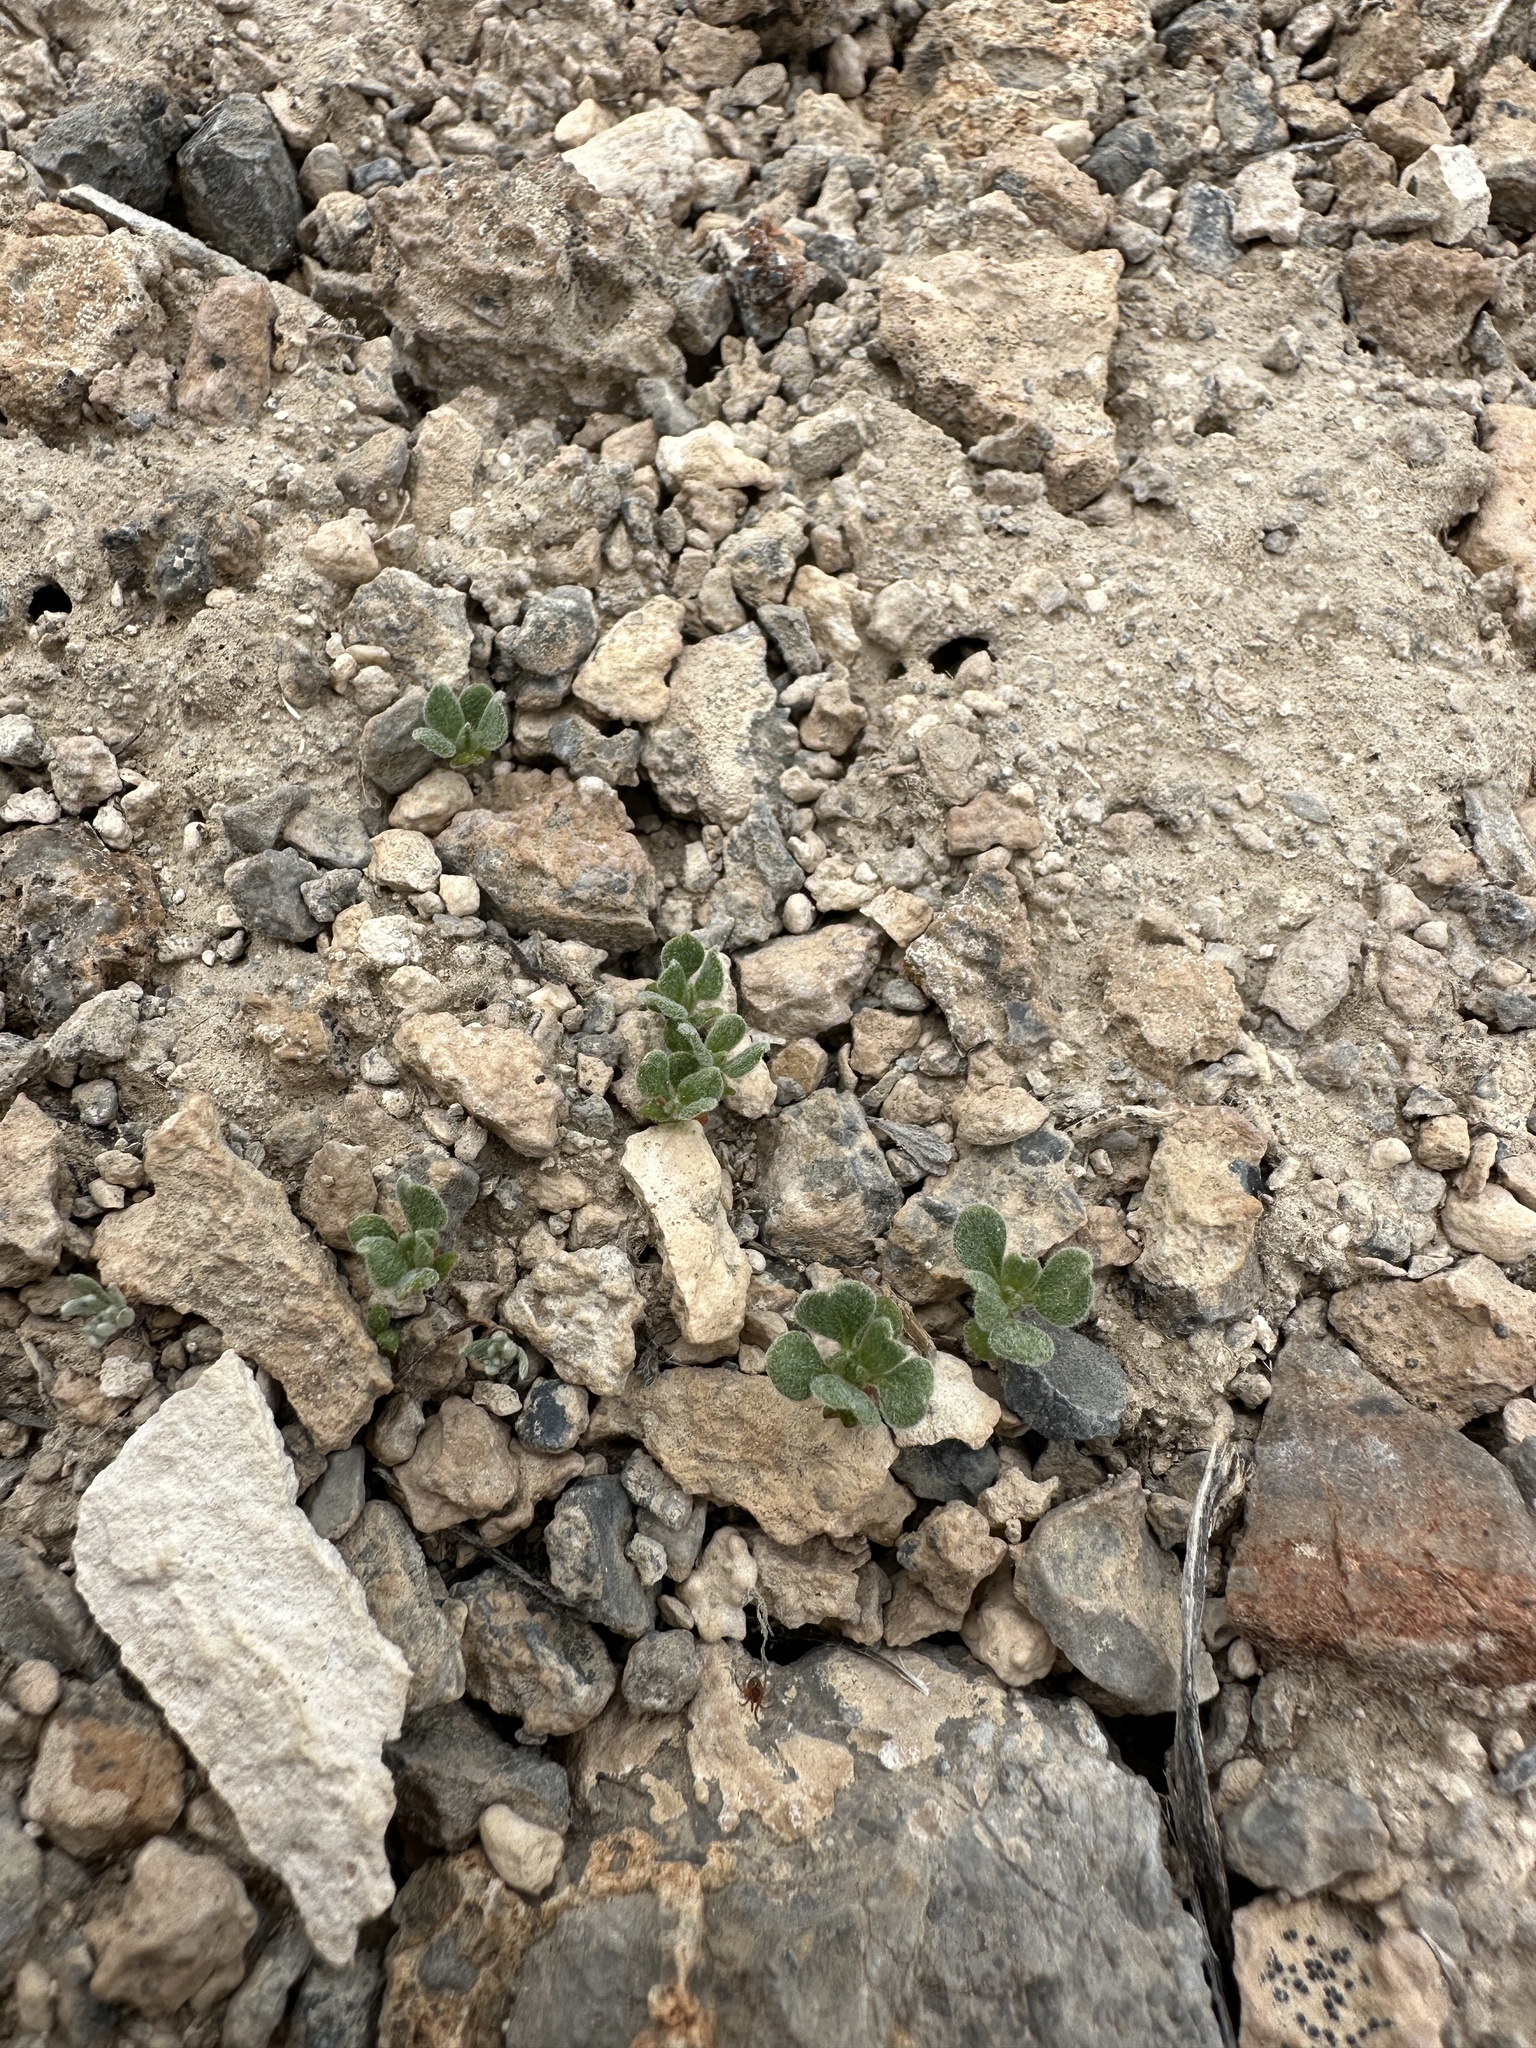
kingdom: Plantae
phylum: Tracheophyta
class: Magnoliopsida
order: Caryophyllales
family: Polygonaceae
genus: Eriogonum
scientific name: Eriogonum darrovii
